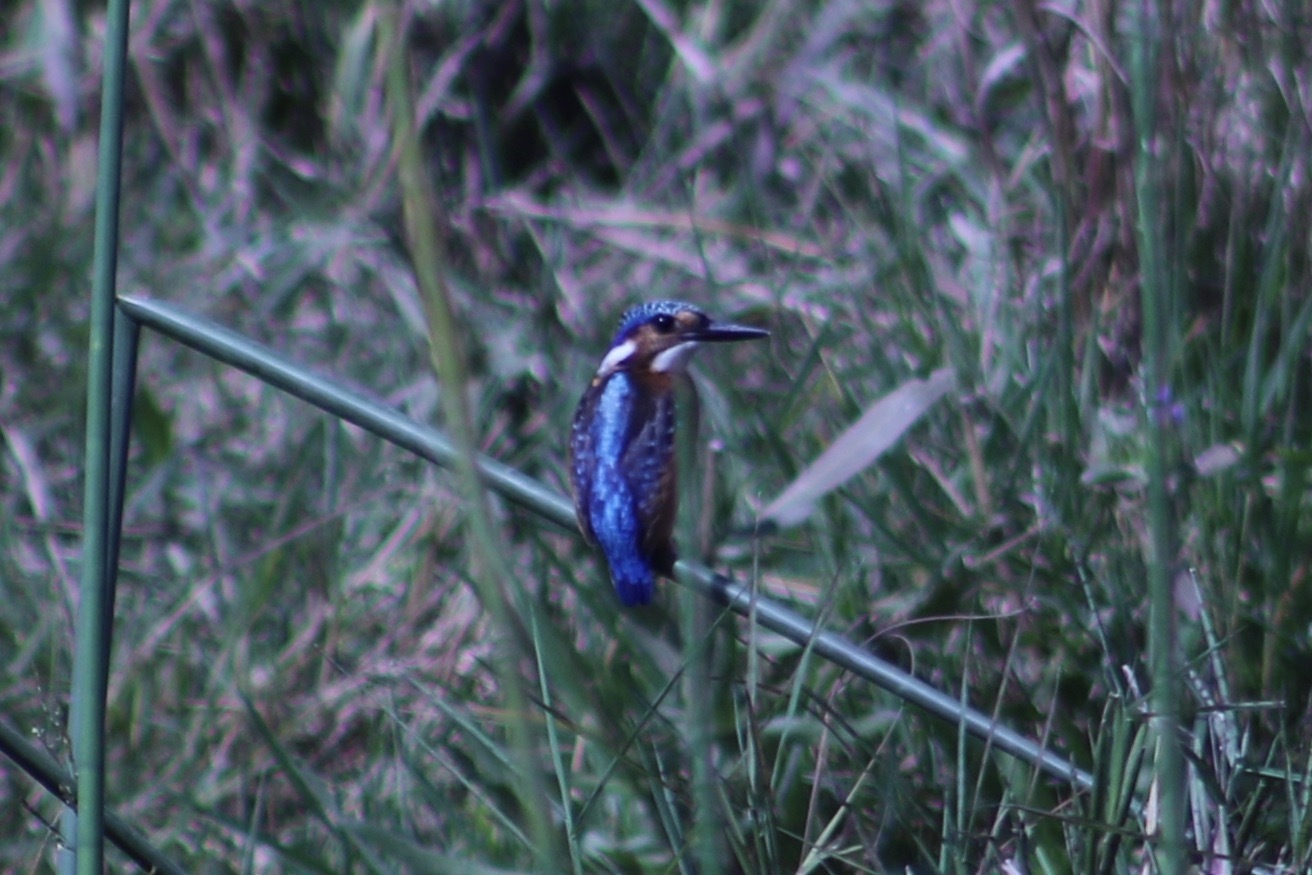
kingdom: Animalia
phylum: Chordata
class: Aves
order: Coraciiformes
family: Alcedinidae
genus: Corythornis
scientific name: Corythornis cristatus
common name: Malachite kingfisher
